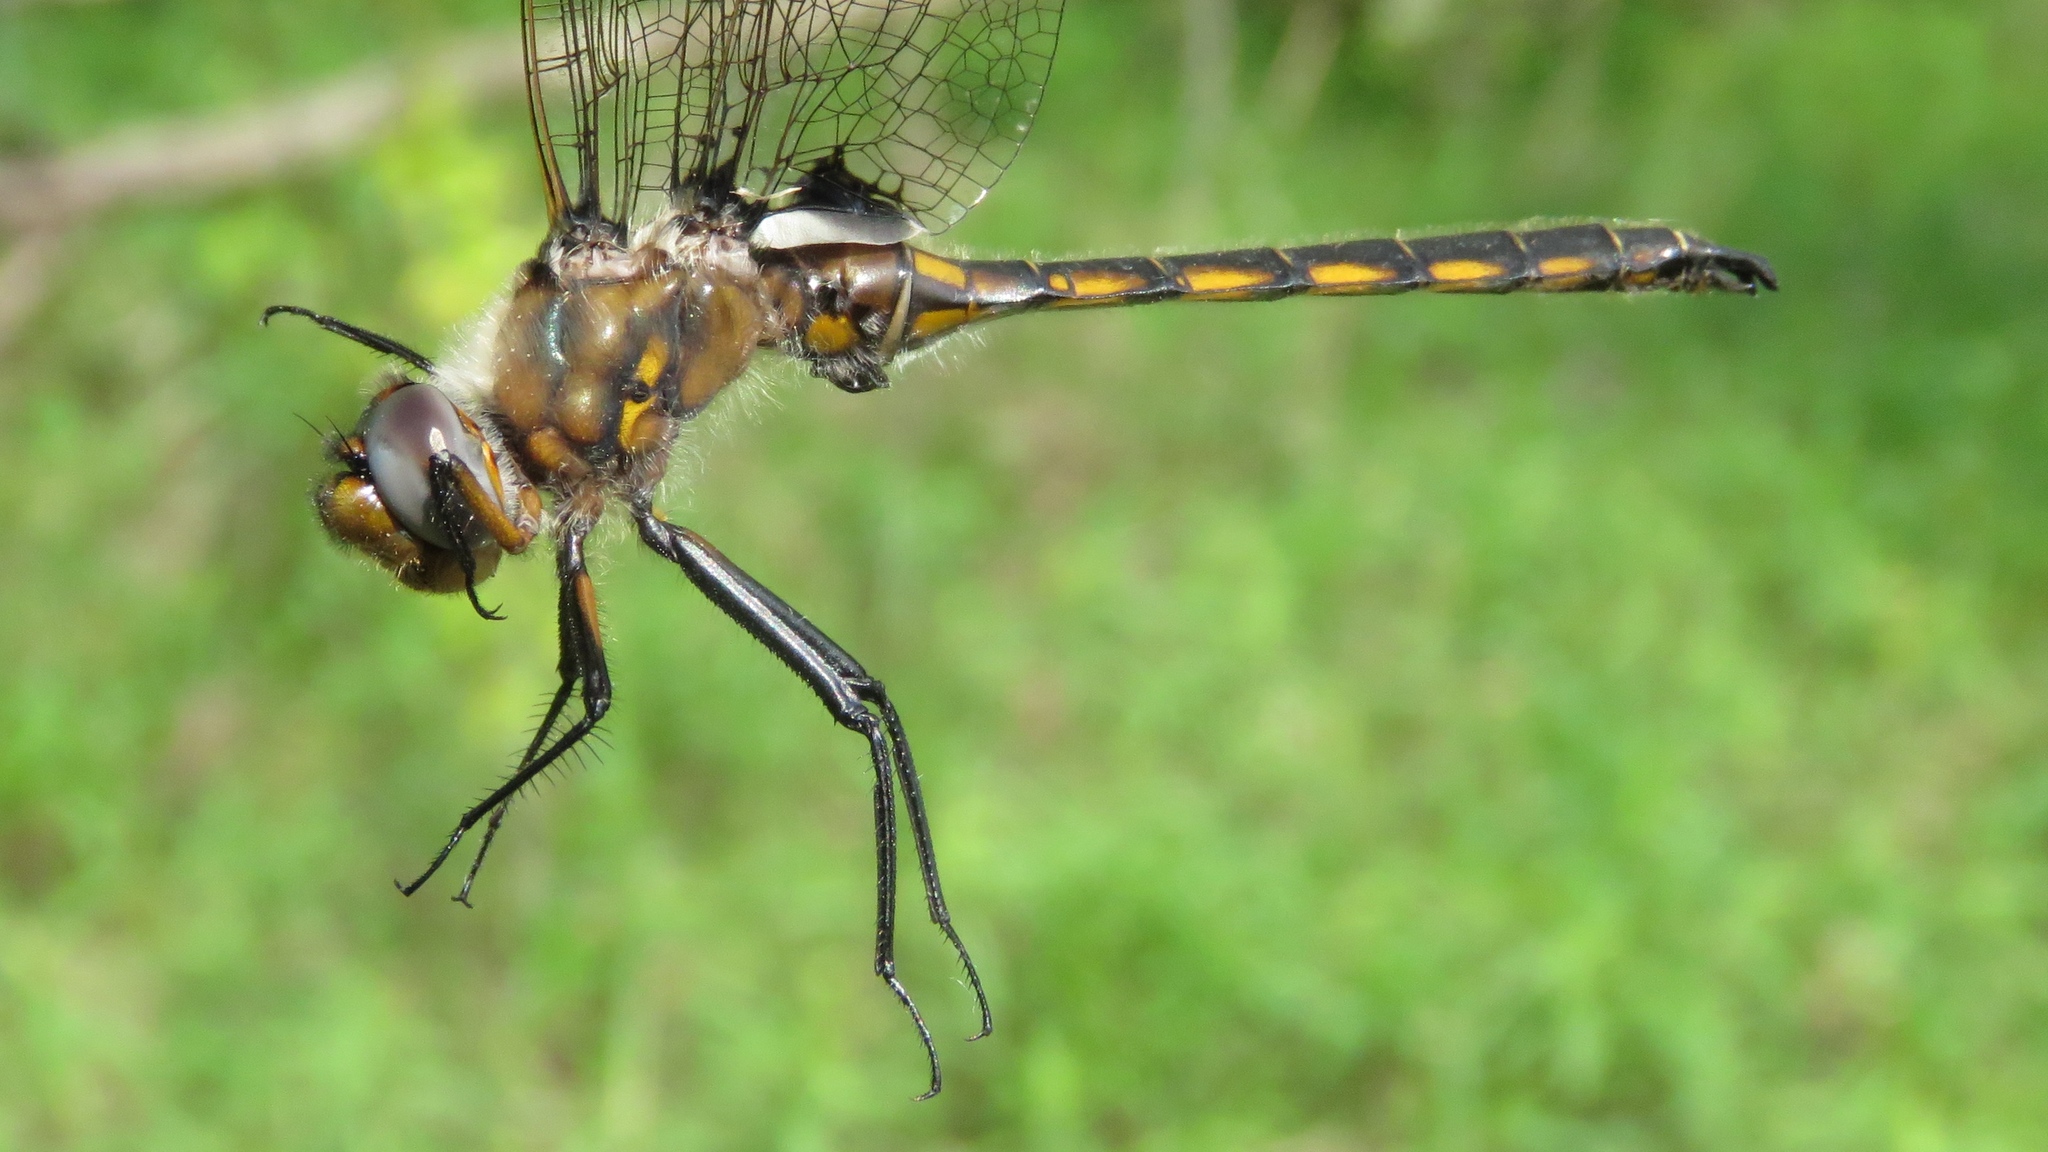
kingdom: Animalia
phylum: Arthropoda
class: Insecta
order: Odonata
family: Corduliidae
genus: Epitheca
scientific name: Epitheca canis
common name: Beaverpond baskettail
